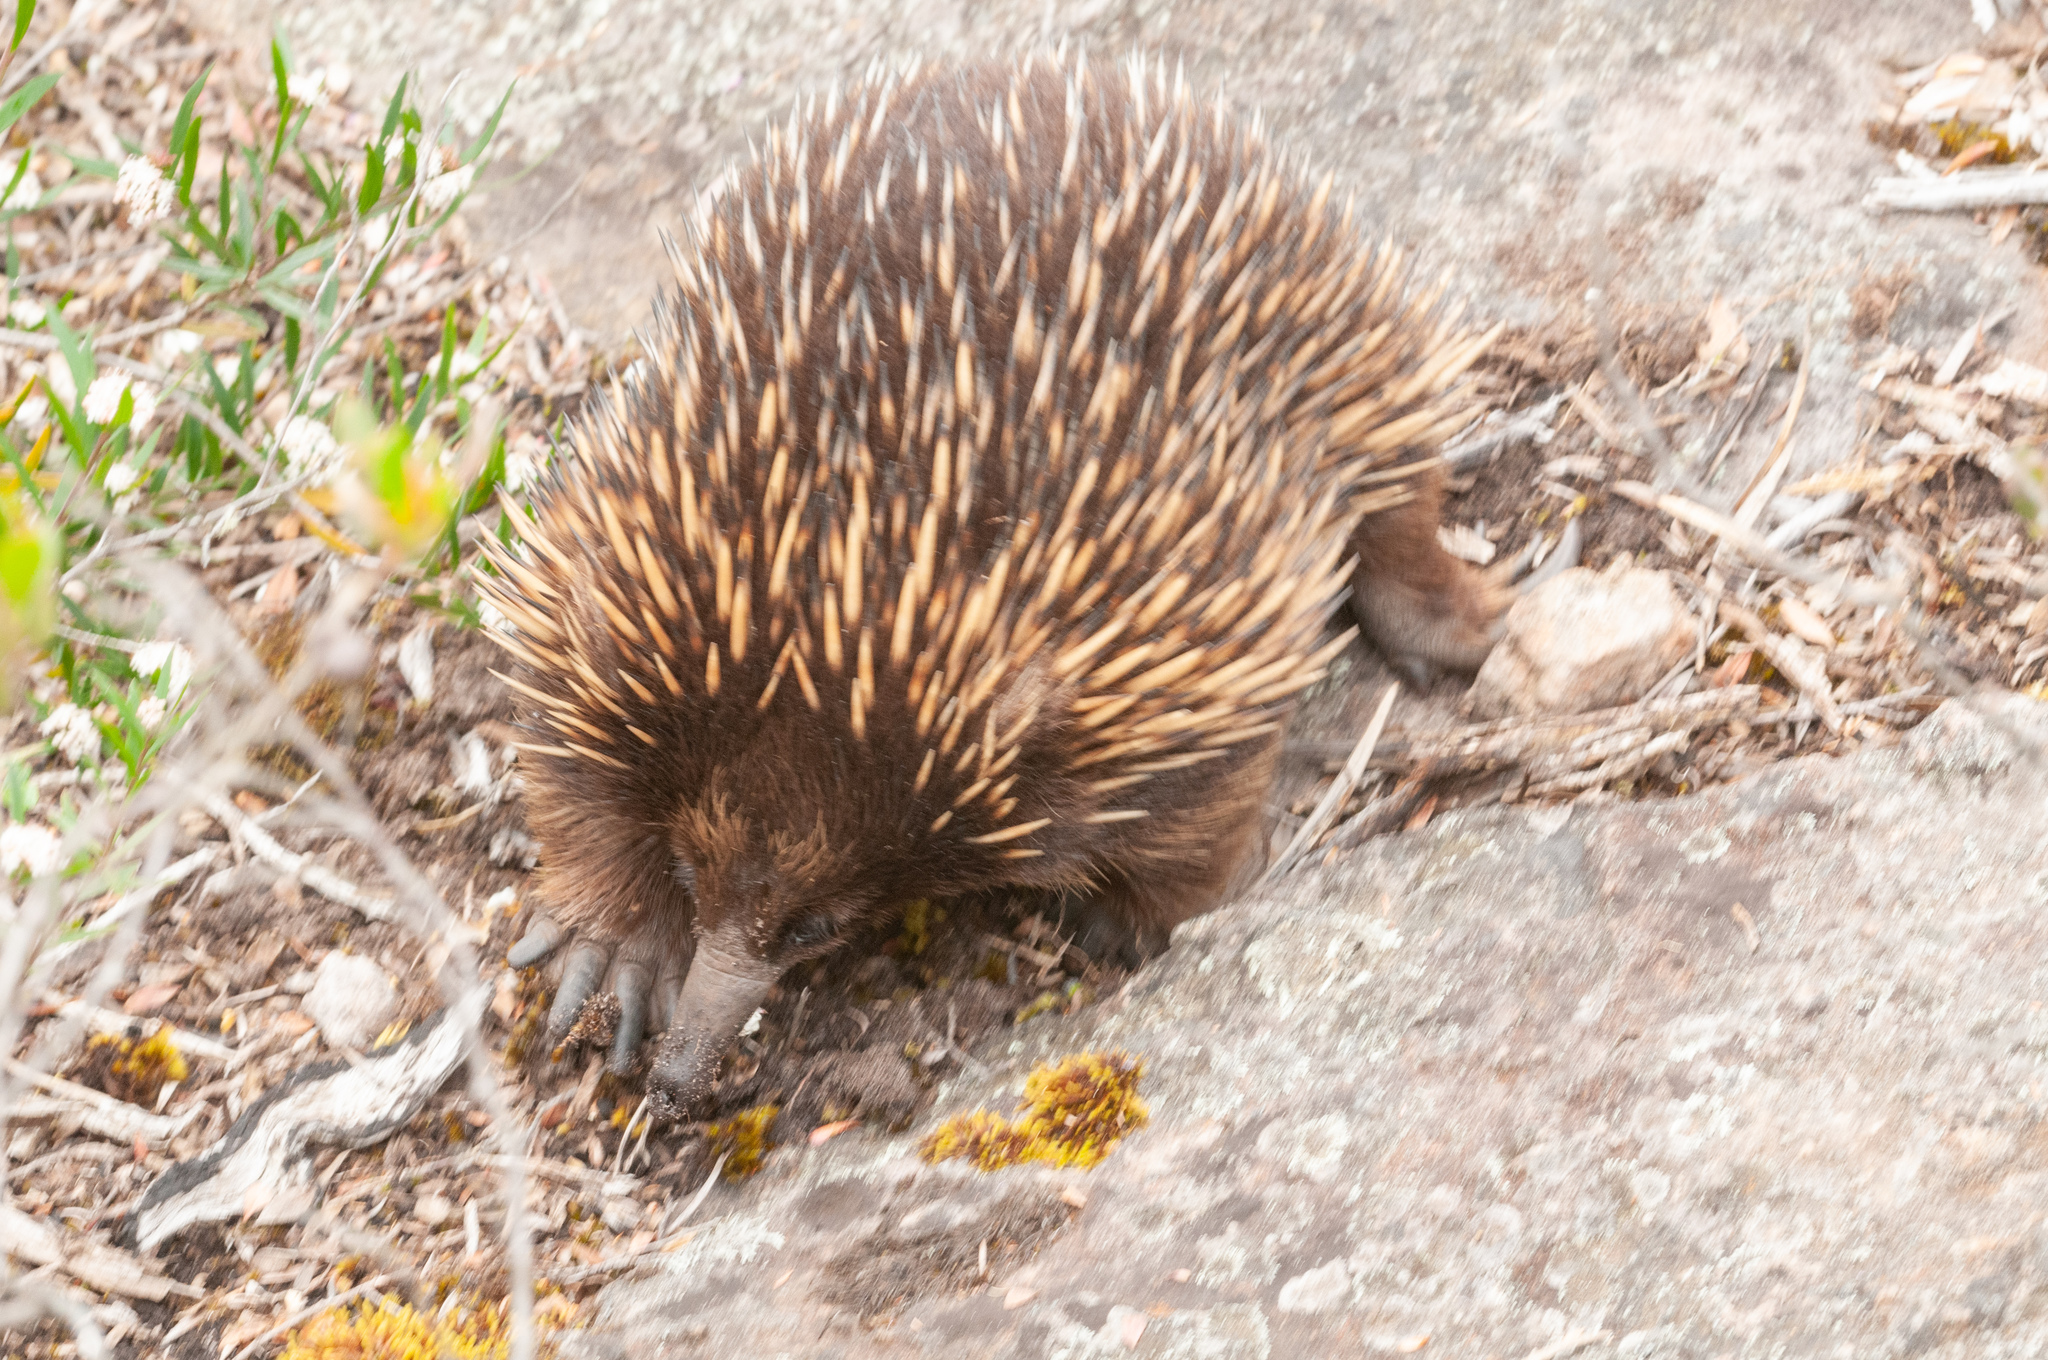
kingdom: Animalia
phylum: Chordata
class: Mammalia
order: Monotremata
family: Tachyglossidae
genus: Tachyglossus
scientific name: Tachyglossus aculeatus
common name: Short-beaked echidna
